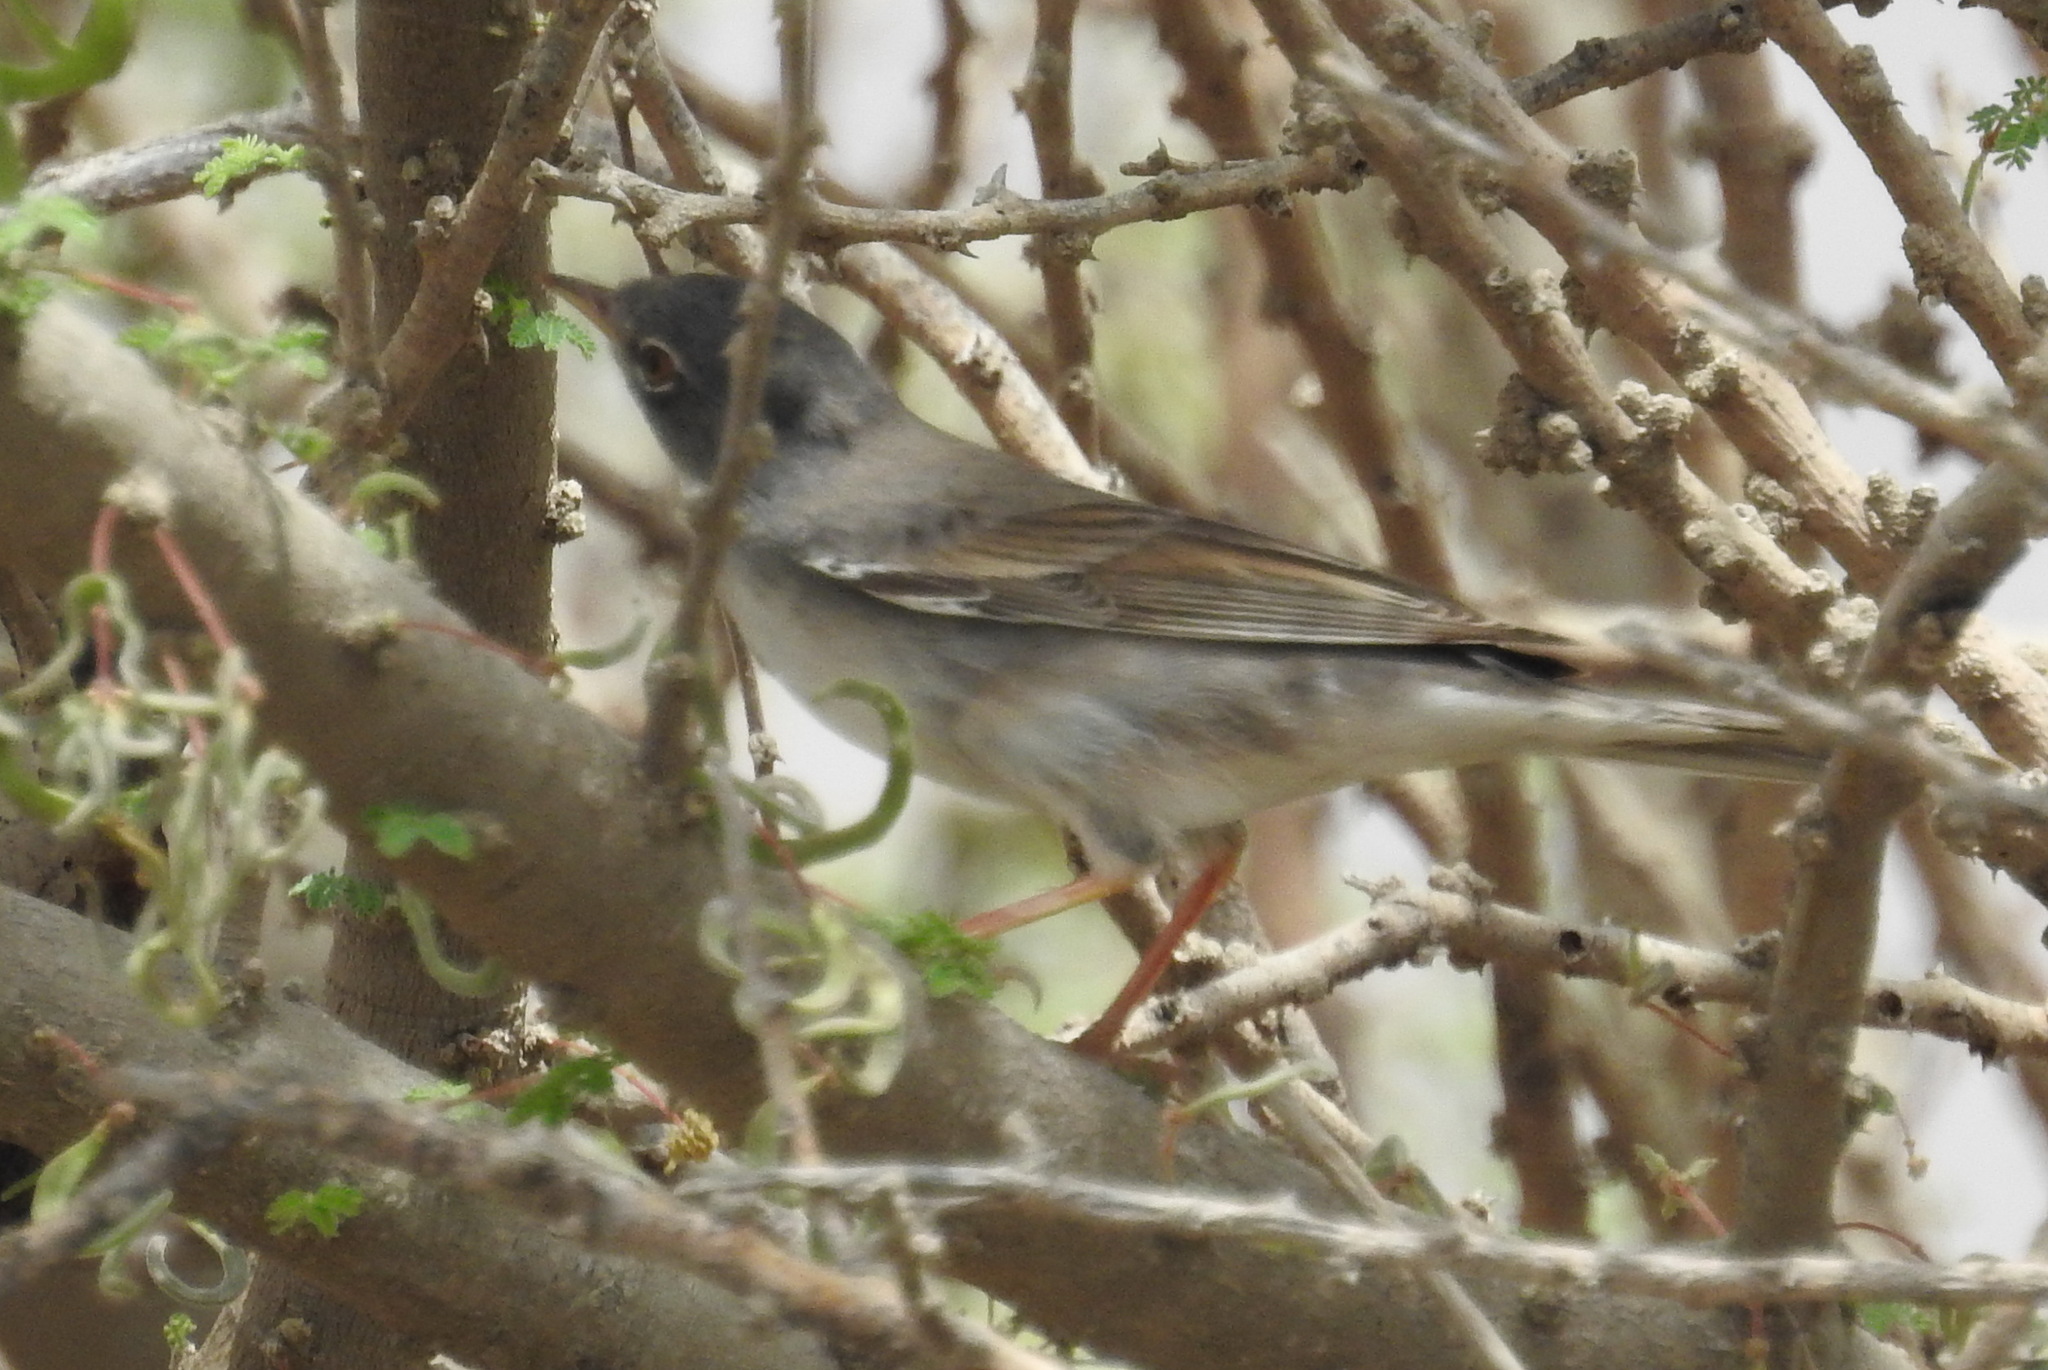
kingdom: Animalia
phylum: Chordata
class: Aves
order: Passeriformes
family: Sylviidae
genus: Sylvia
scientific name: Sylvia communis
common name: Common whitethroat
